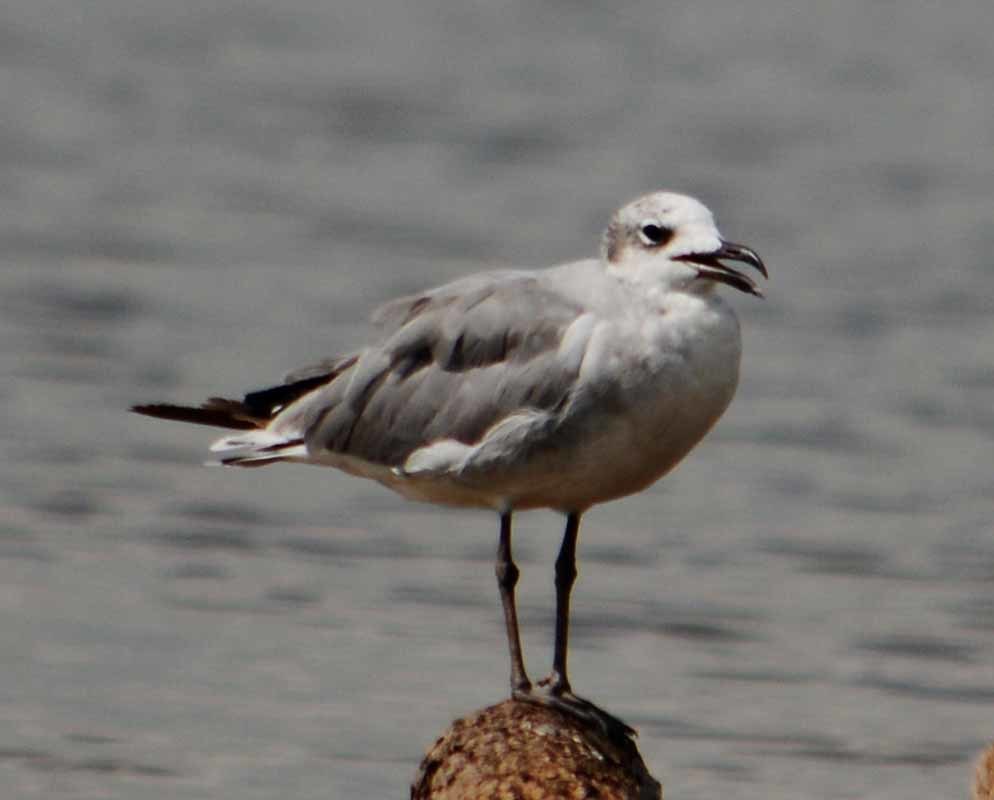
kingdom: Animalia
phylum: Chordata
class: Aves
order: Charadriiformes
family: Laridae
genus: Leucophaeus
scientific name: Leucophaeus atricilla
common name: Laughing gull
